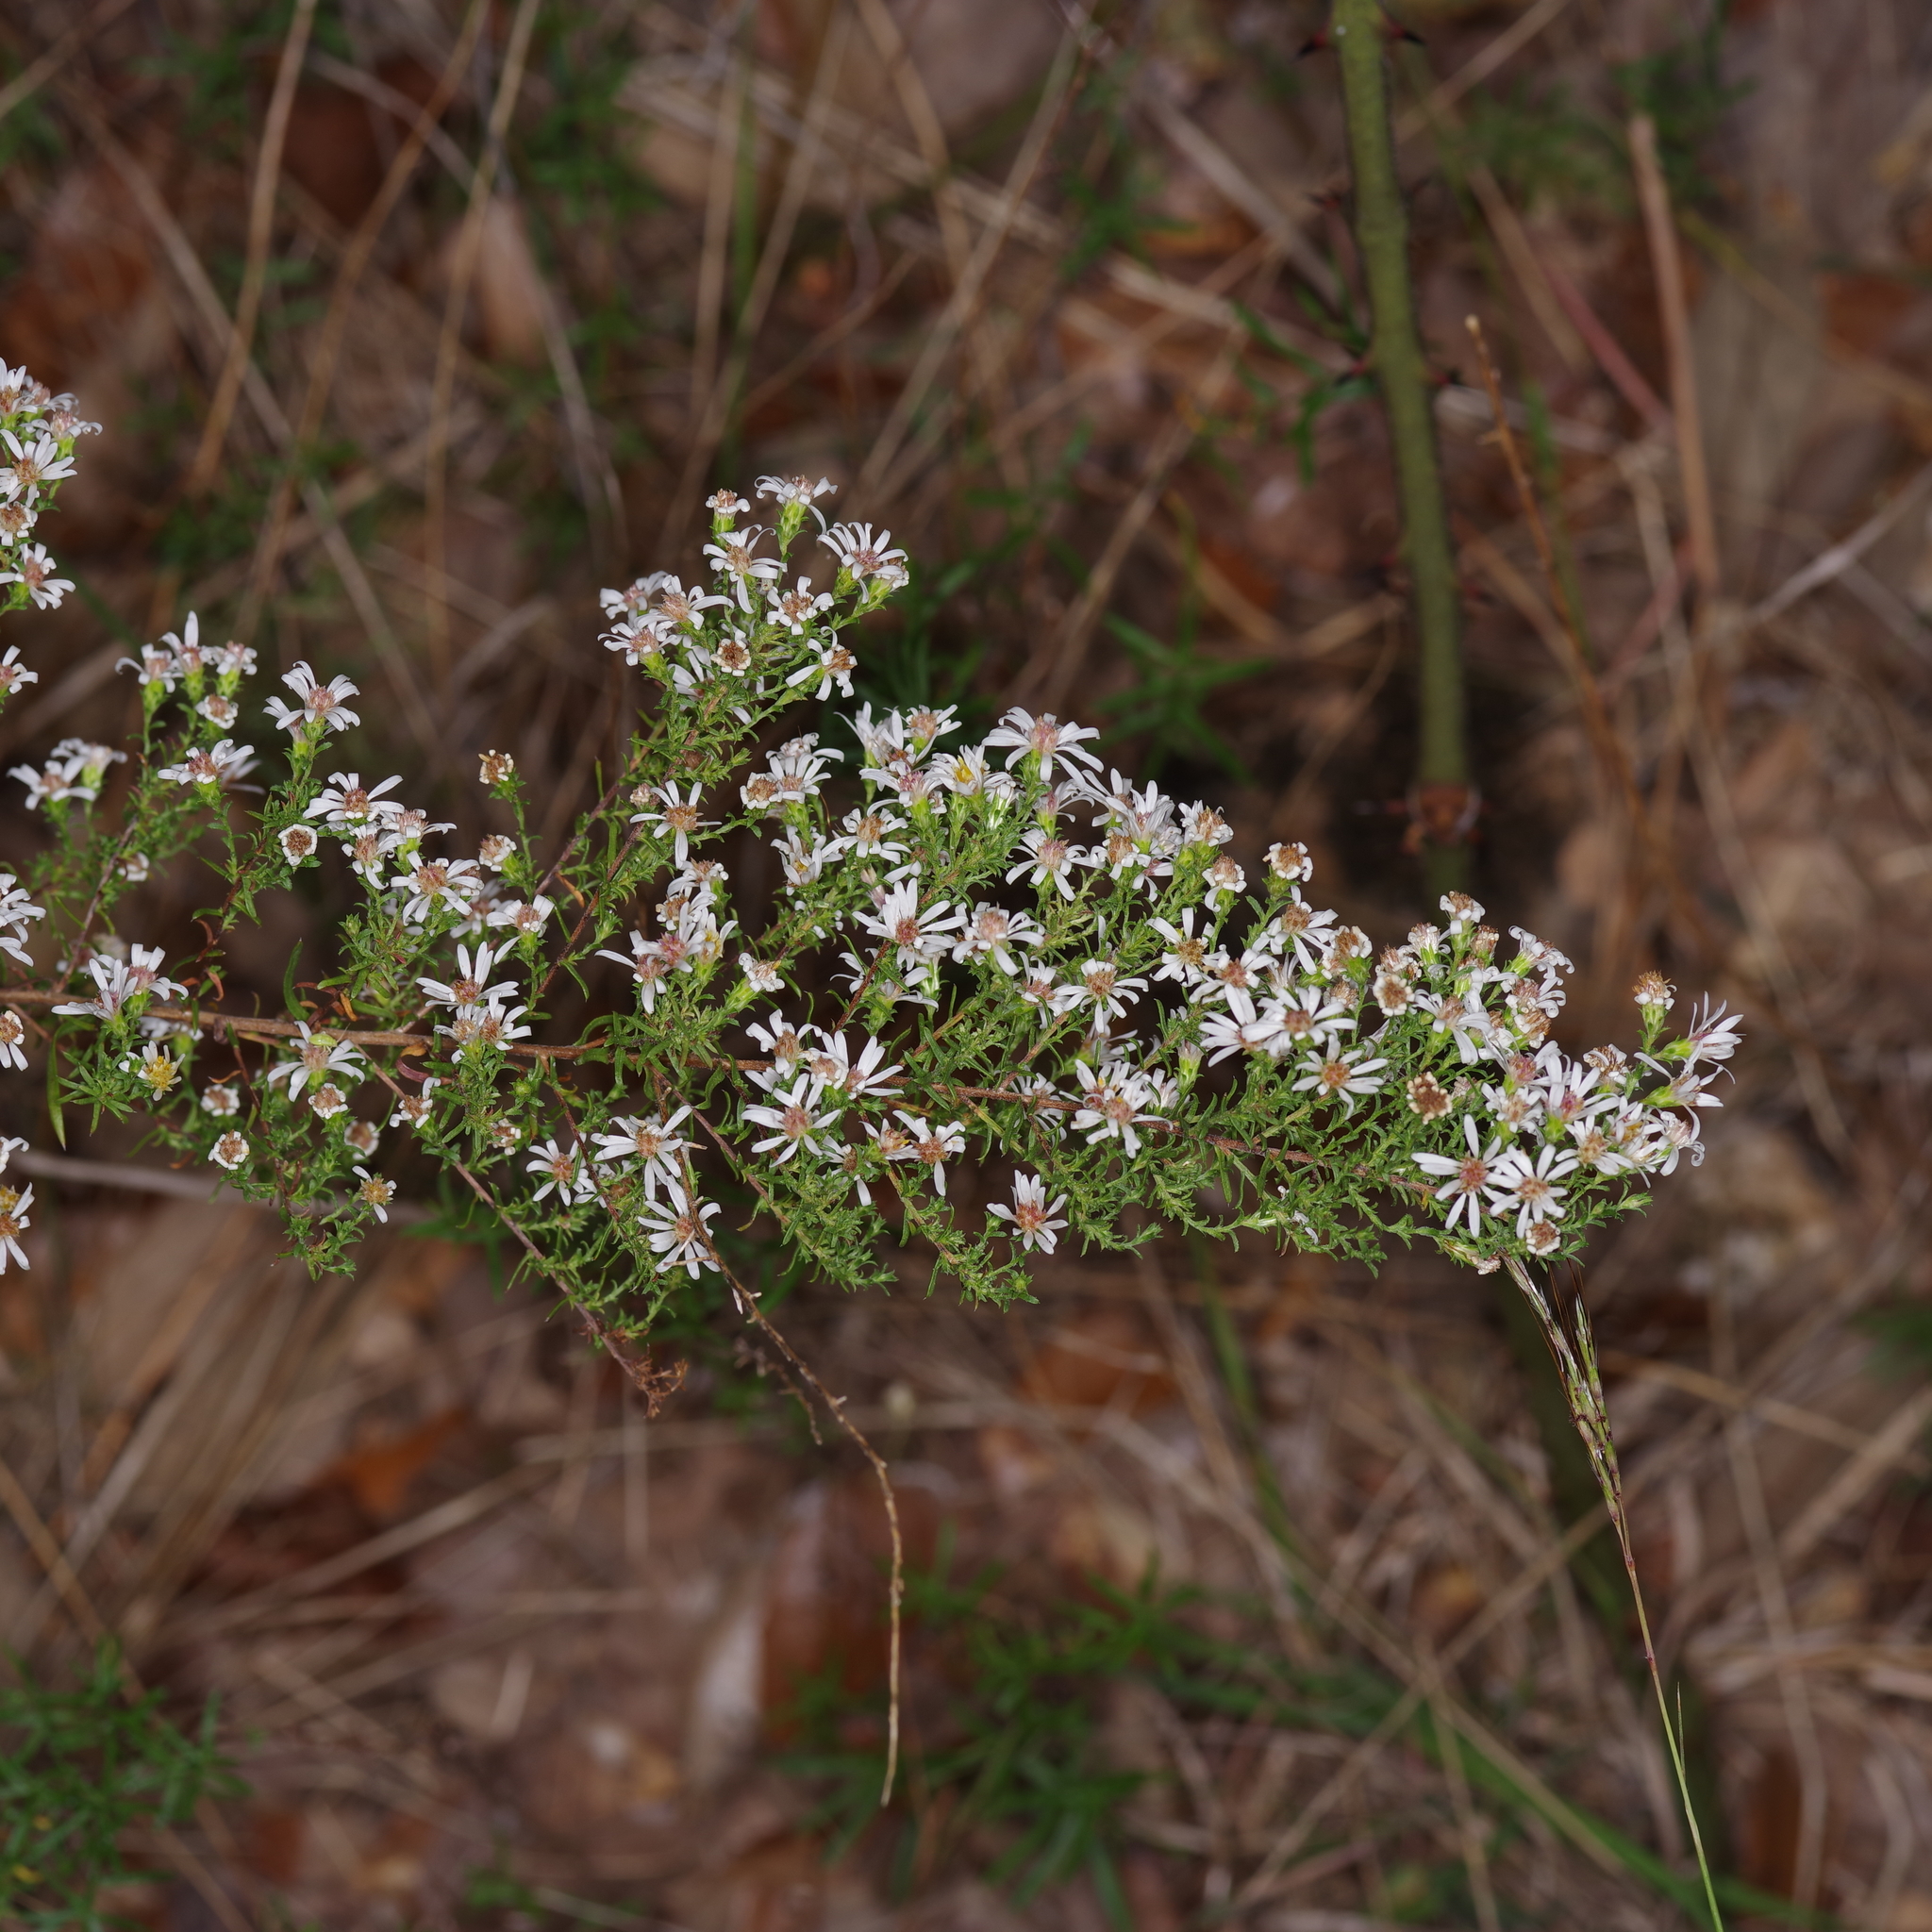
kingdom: Plantae
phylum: Tracheophyta
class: Magnoliopsida
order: Asterales
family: Asteraceae
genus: Symphyotrichum
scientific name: Symphyotrichum ericoides
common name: Heath aster
